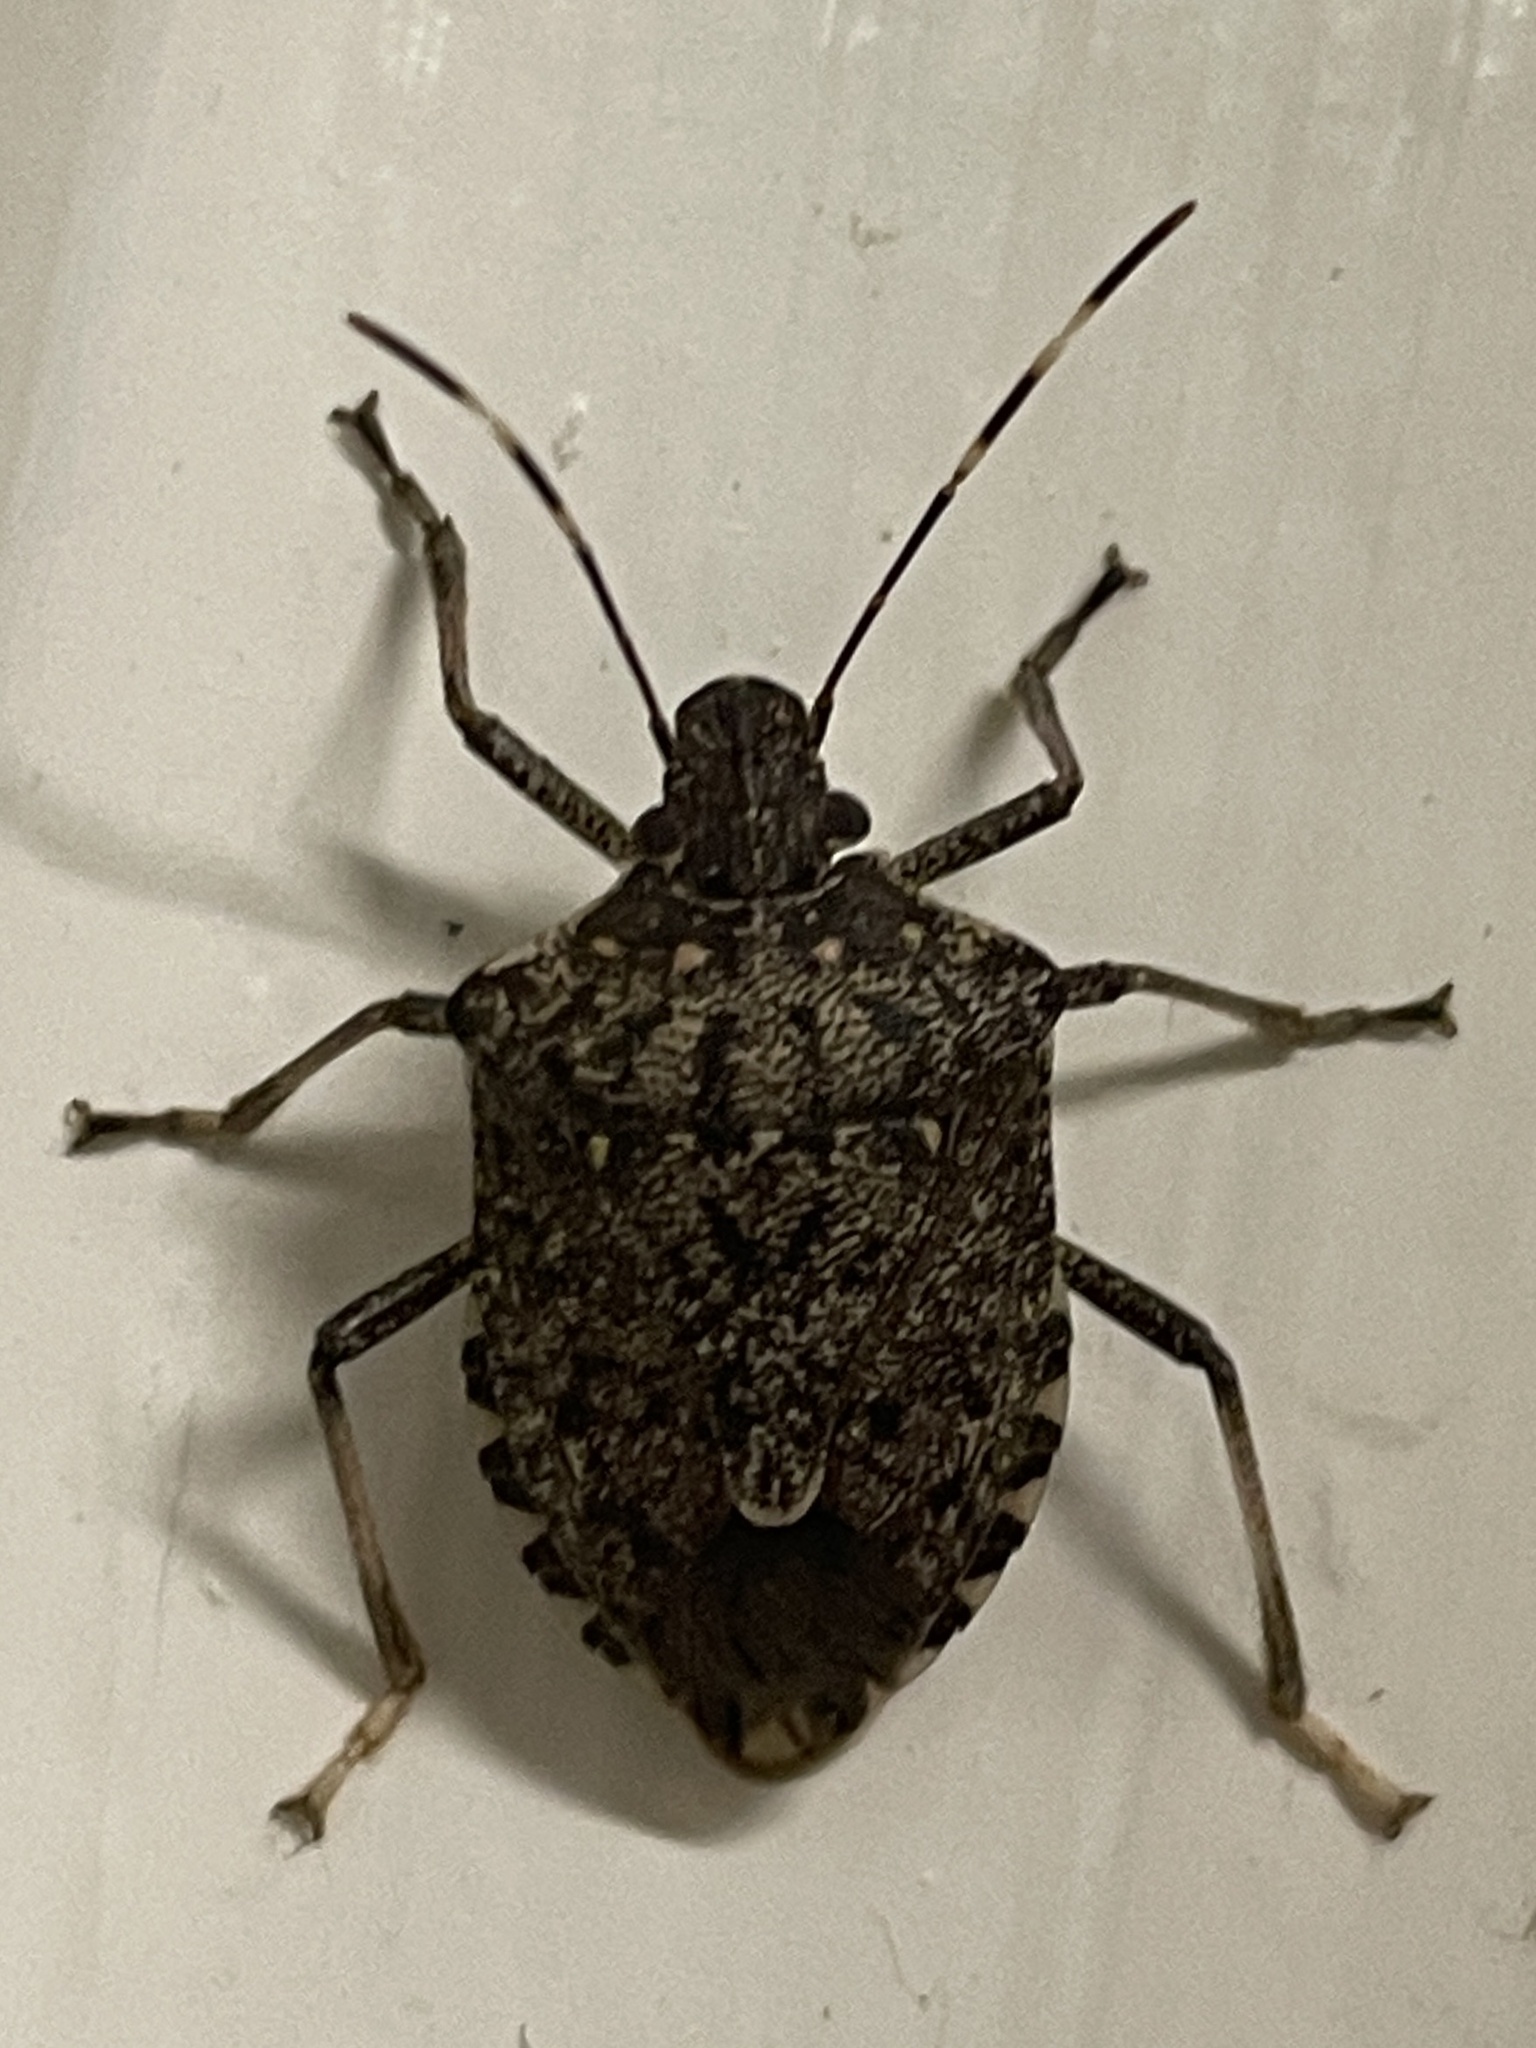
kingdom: Animalia
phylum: Arthropoda
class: Insecta
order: Hemiptera
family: Pentatomidae
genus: Halyomorpha
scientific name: Halyomorpha halys
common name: Brown marmorated stink bug
